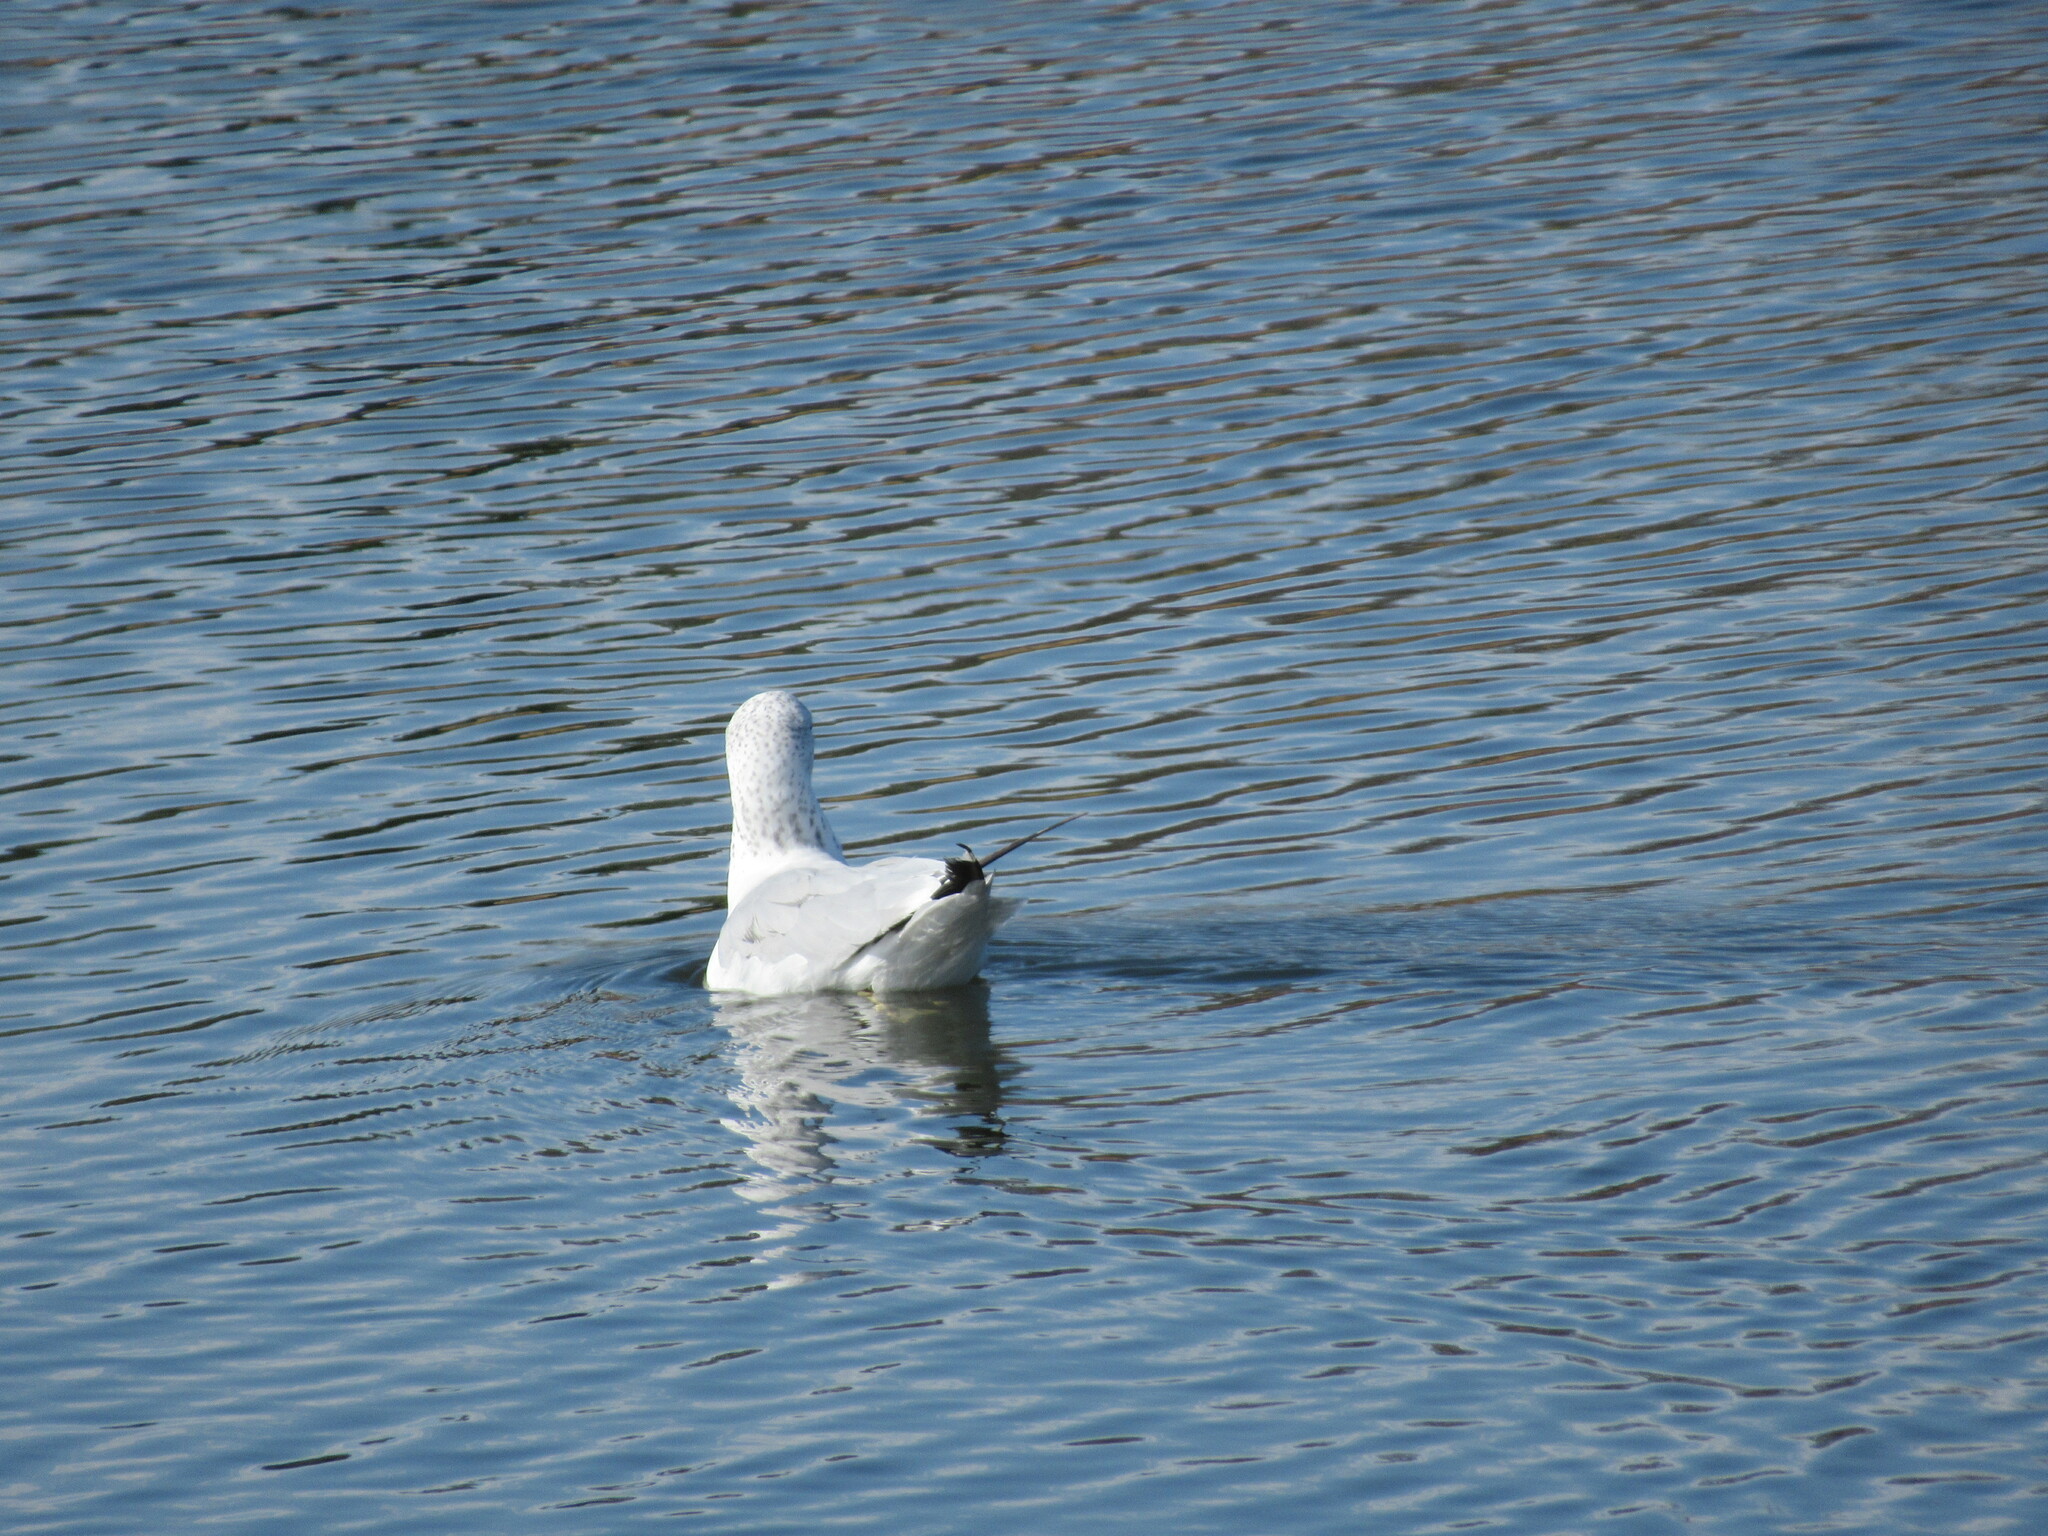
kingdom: Animalia
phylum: Chordata
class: Aves
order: Charadriiformes
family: Laridae
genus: Larus
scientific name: Larus delawarensis
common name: Ring-billed gull
